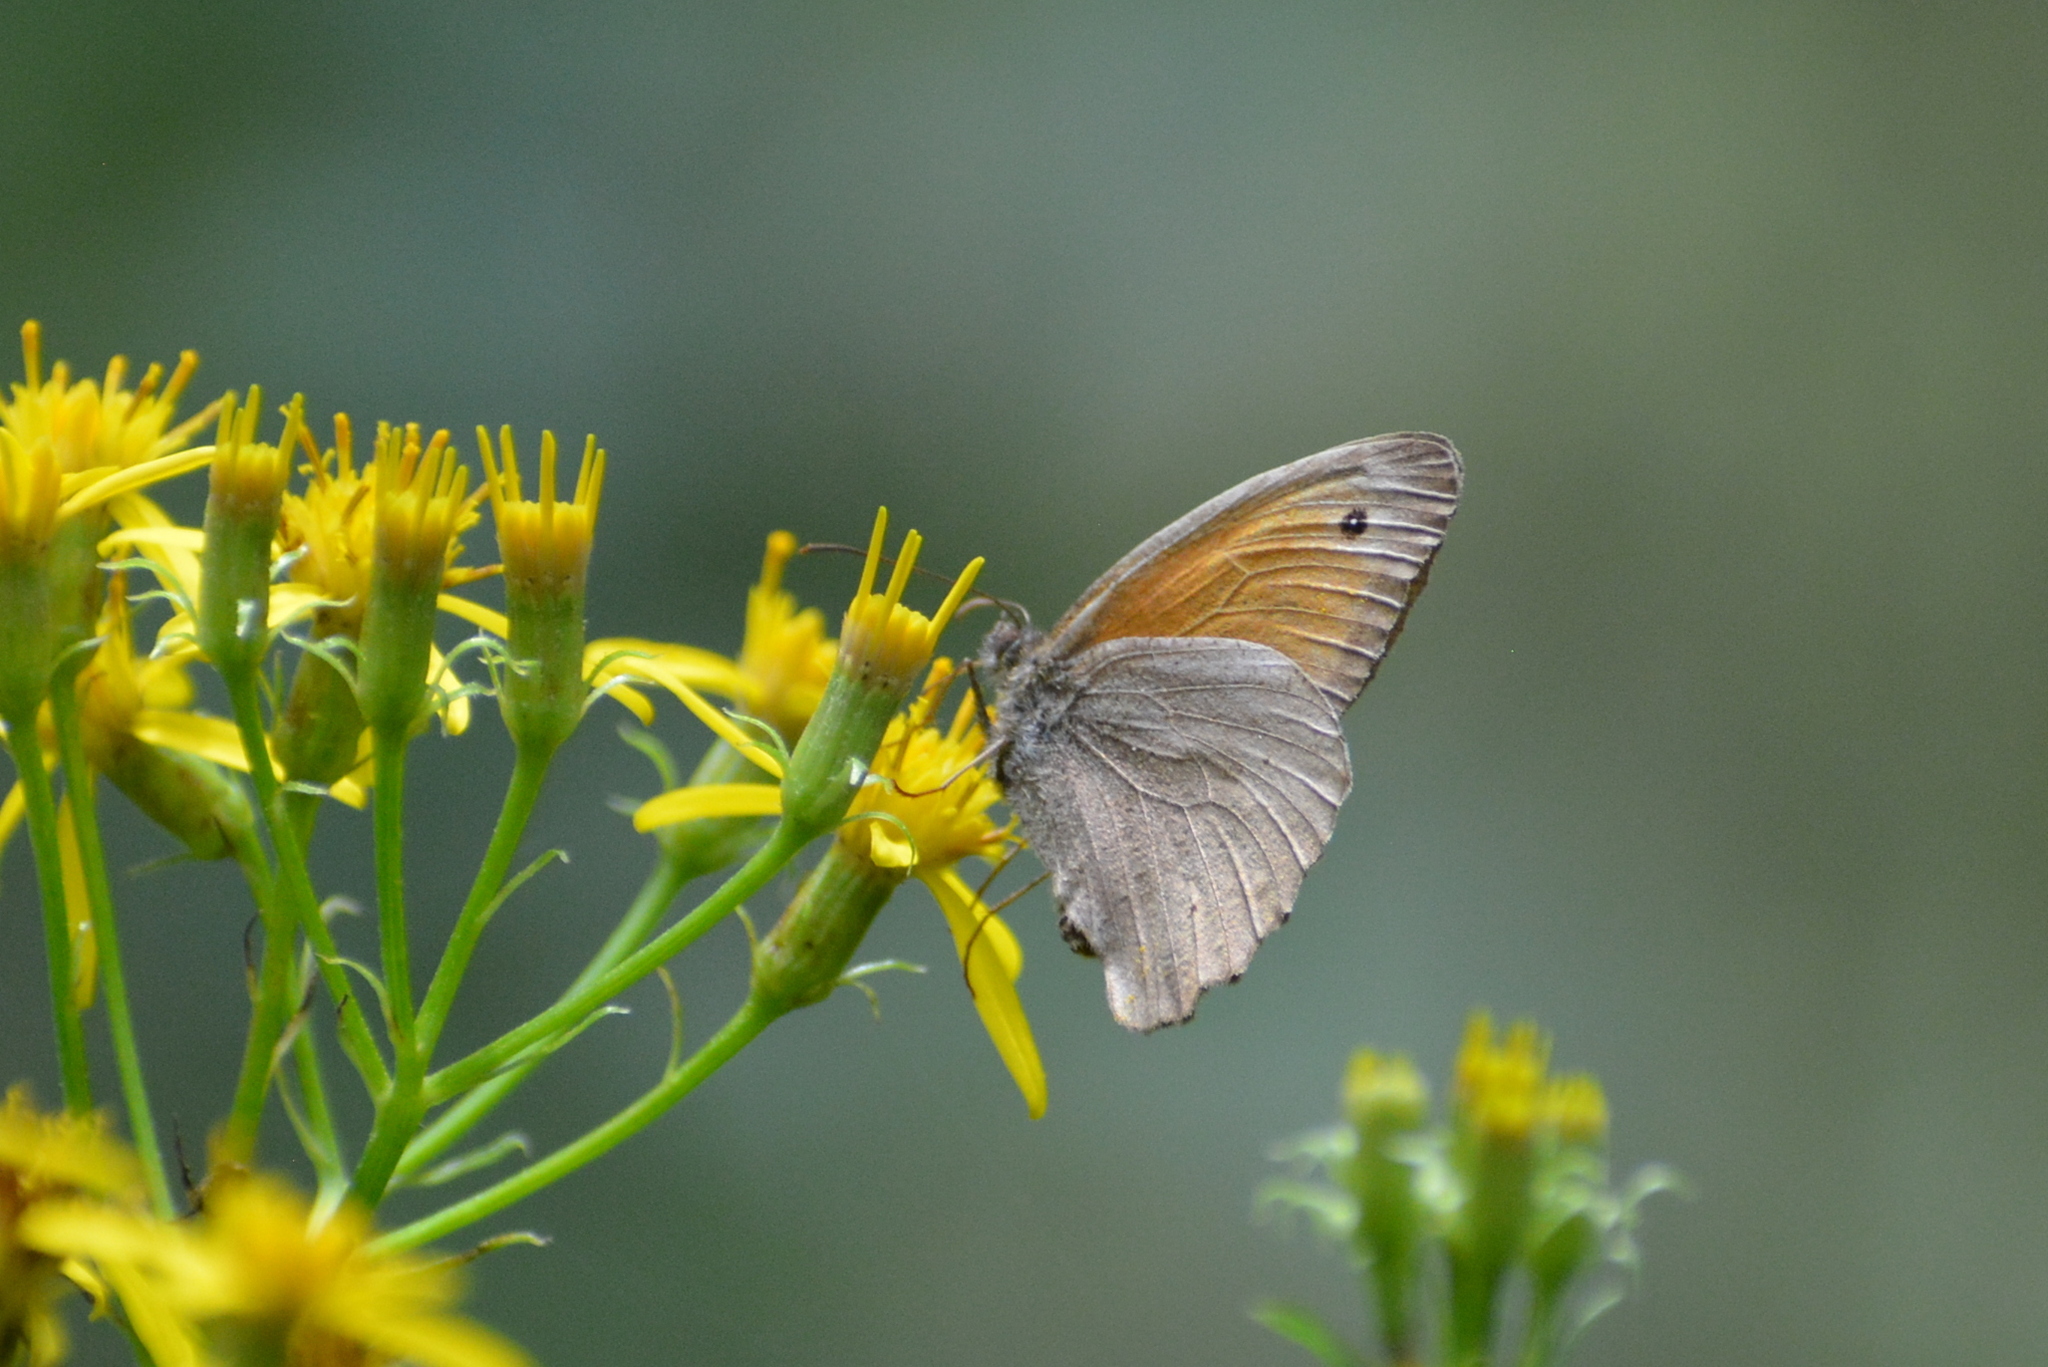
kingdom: Animalia
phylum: Arthropoda
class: Insecta
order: Lepidoptera
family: Nymphalidae
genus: Maniola
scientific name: Maniola jurtina
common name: Meadow brown
